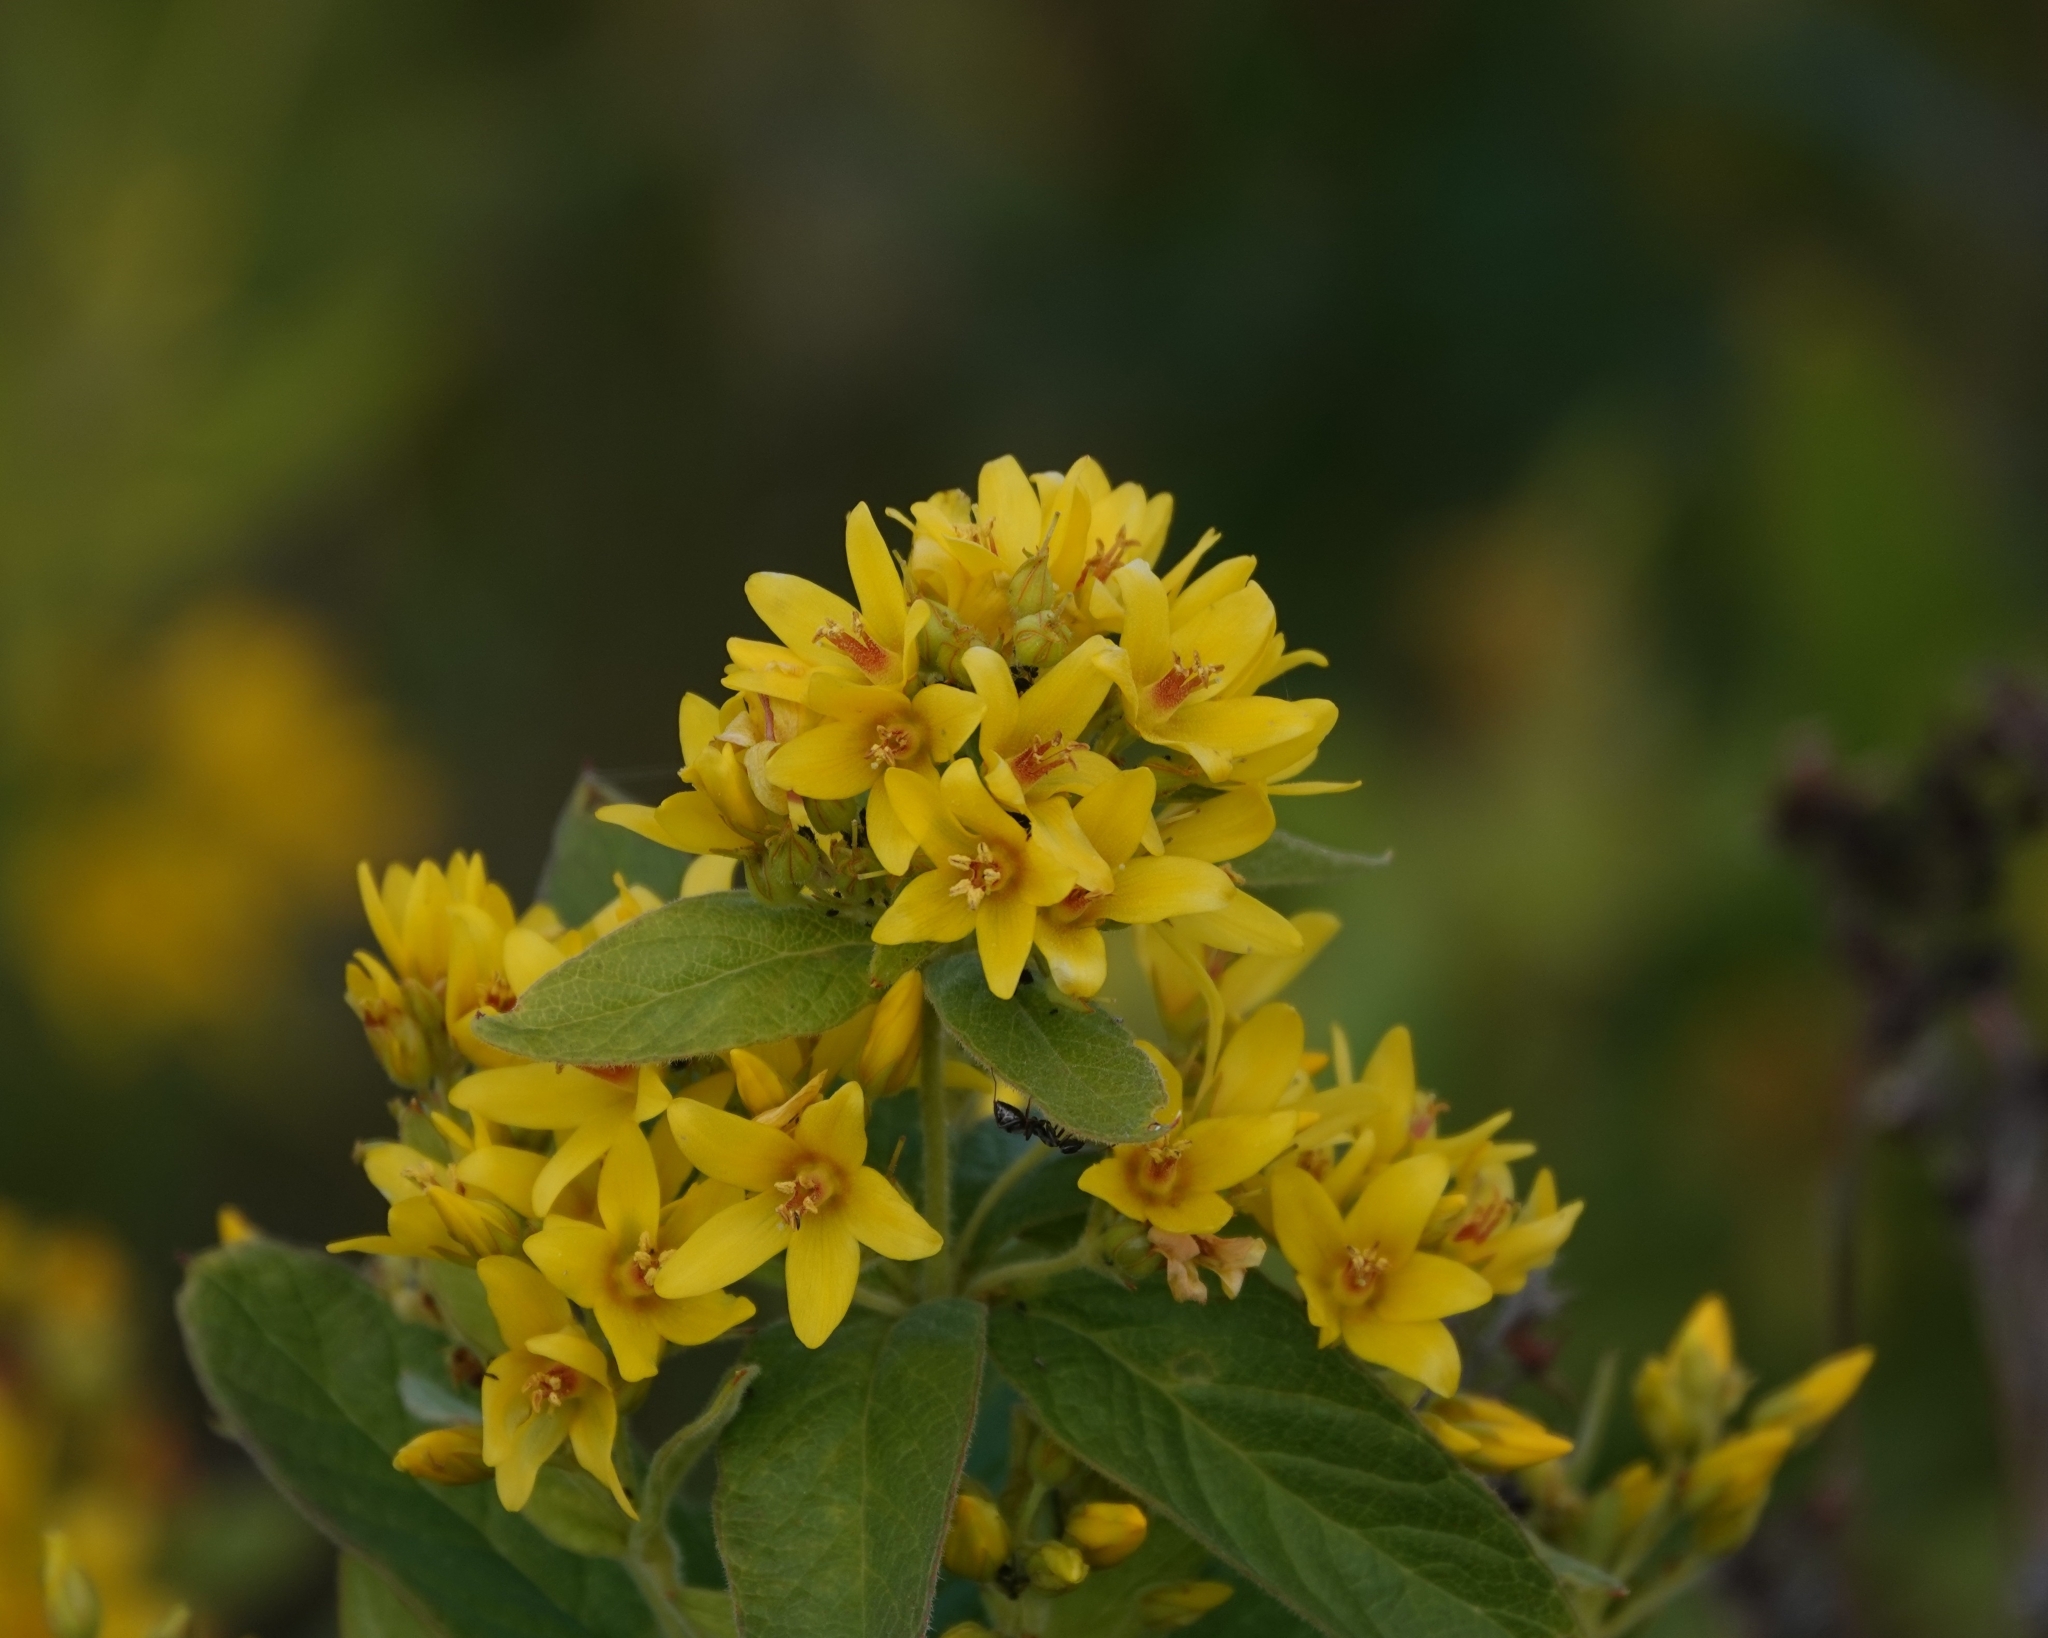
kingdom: Plantae
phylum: Tracheophyta
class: Magnoliopsida
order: Ericales
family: Primulaceae
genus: Lysimachia
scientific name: Lysimachia vulgaris
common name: Yellow loosestrife
